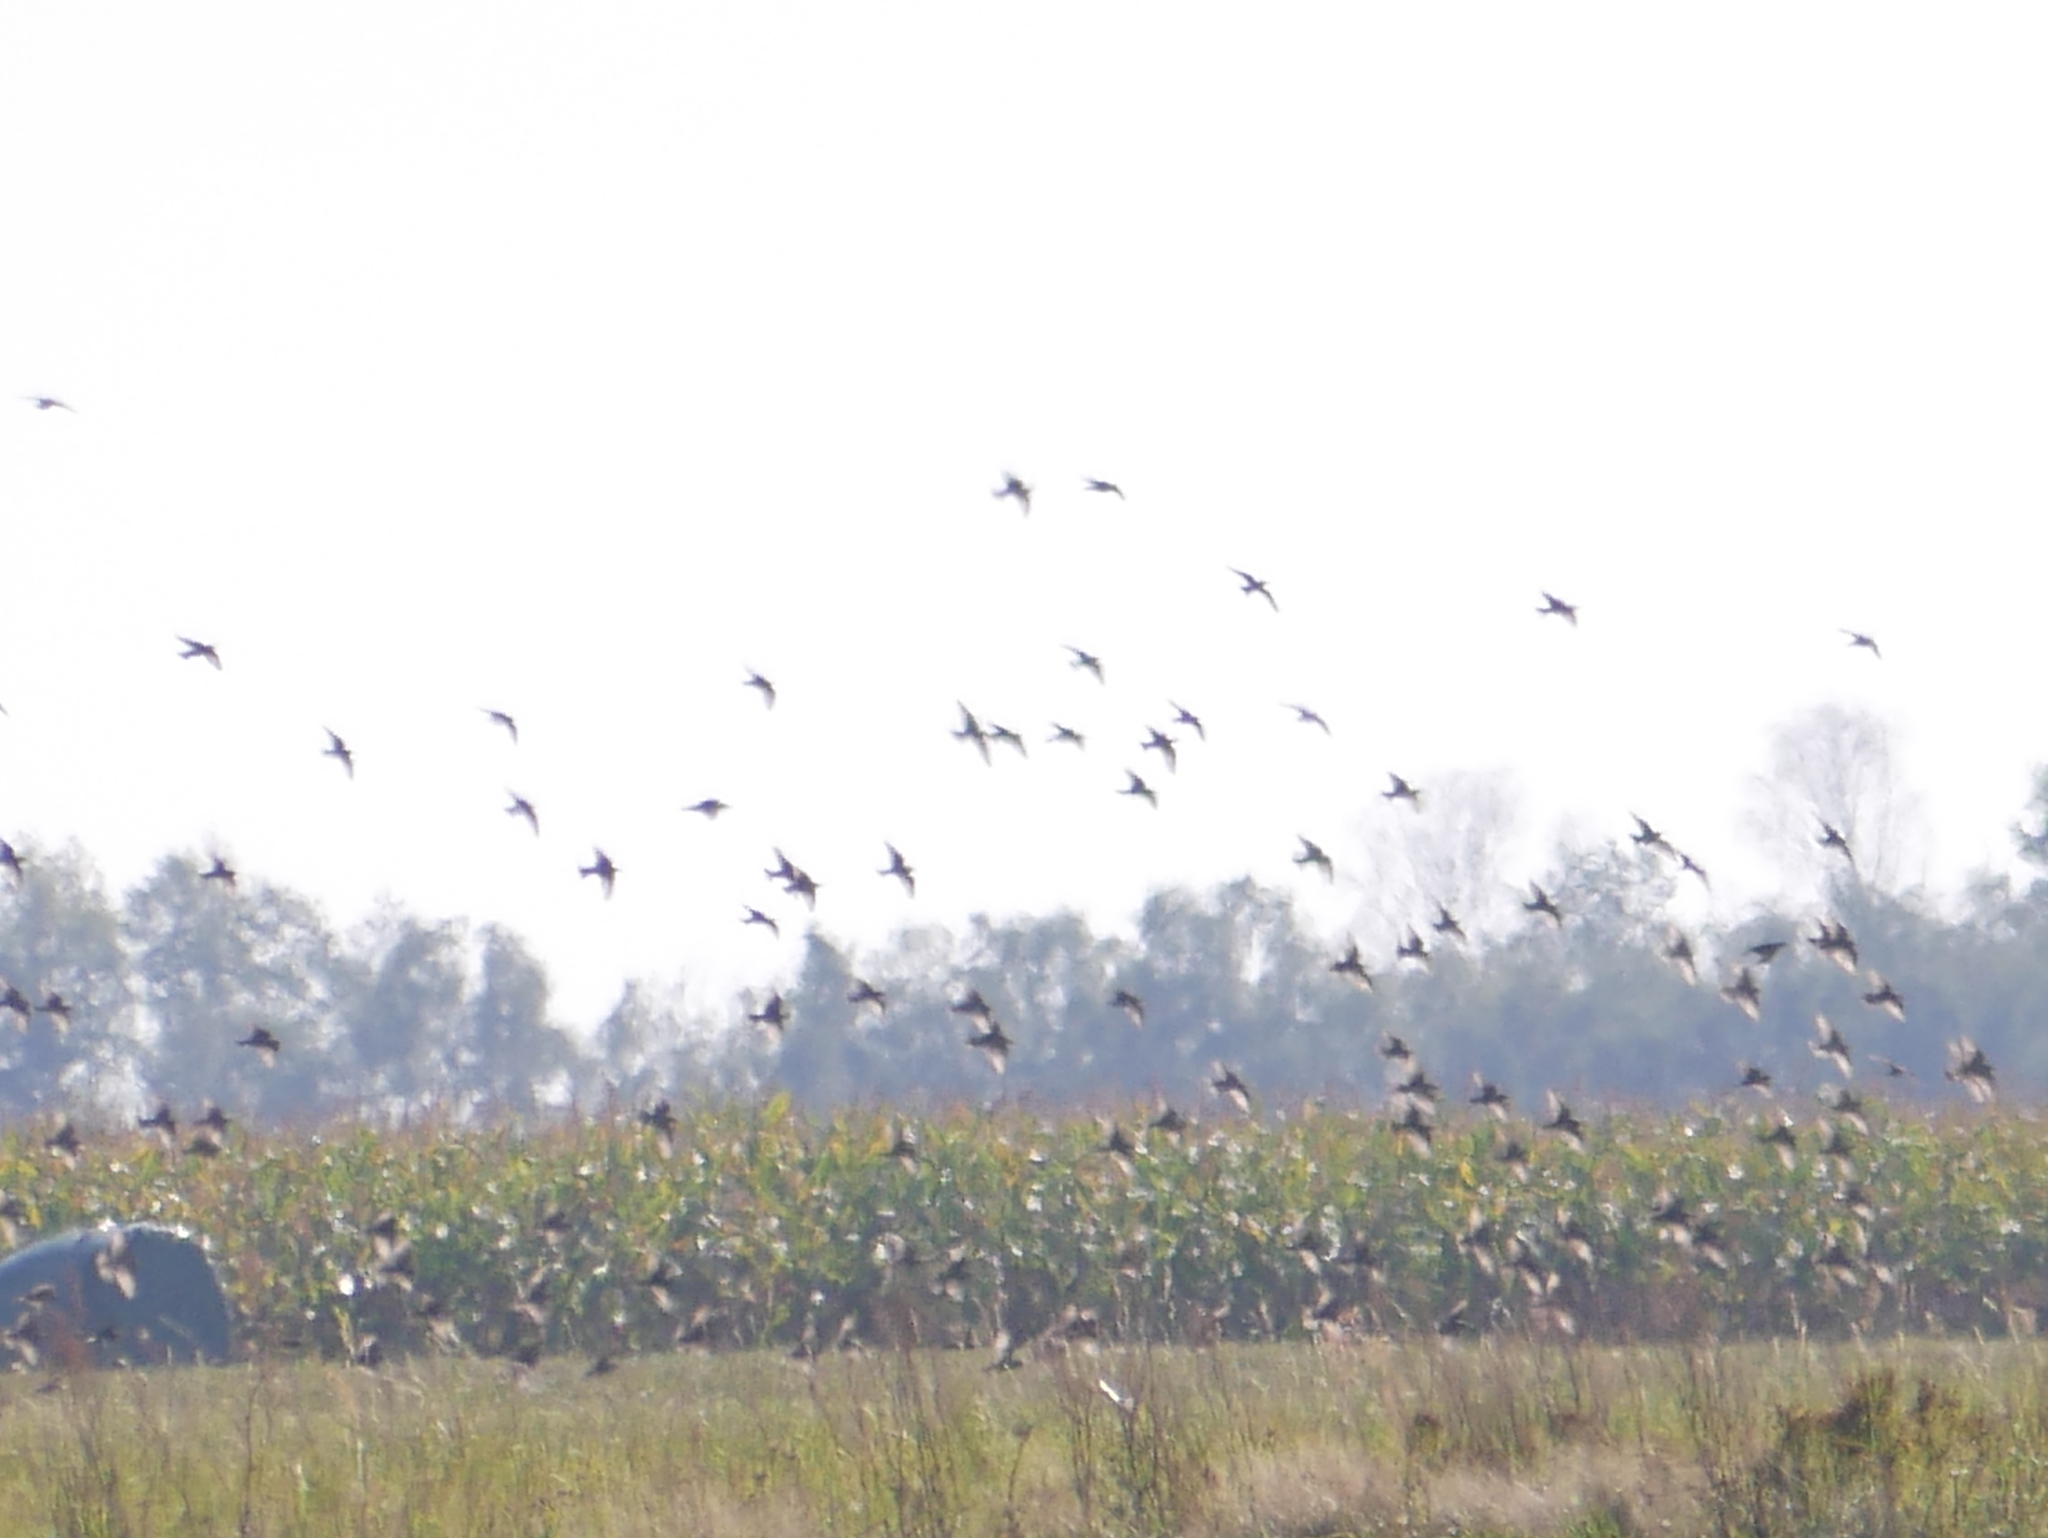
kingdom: Animalia
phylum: Chordata
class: Aves
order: Passeriformes
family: Sturnidae
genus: Sturnus
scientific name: Sturnus vulgaris
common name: Common starling
